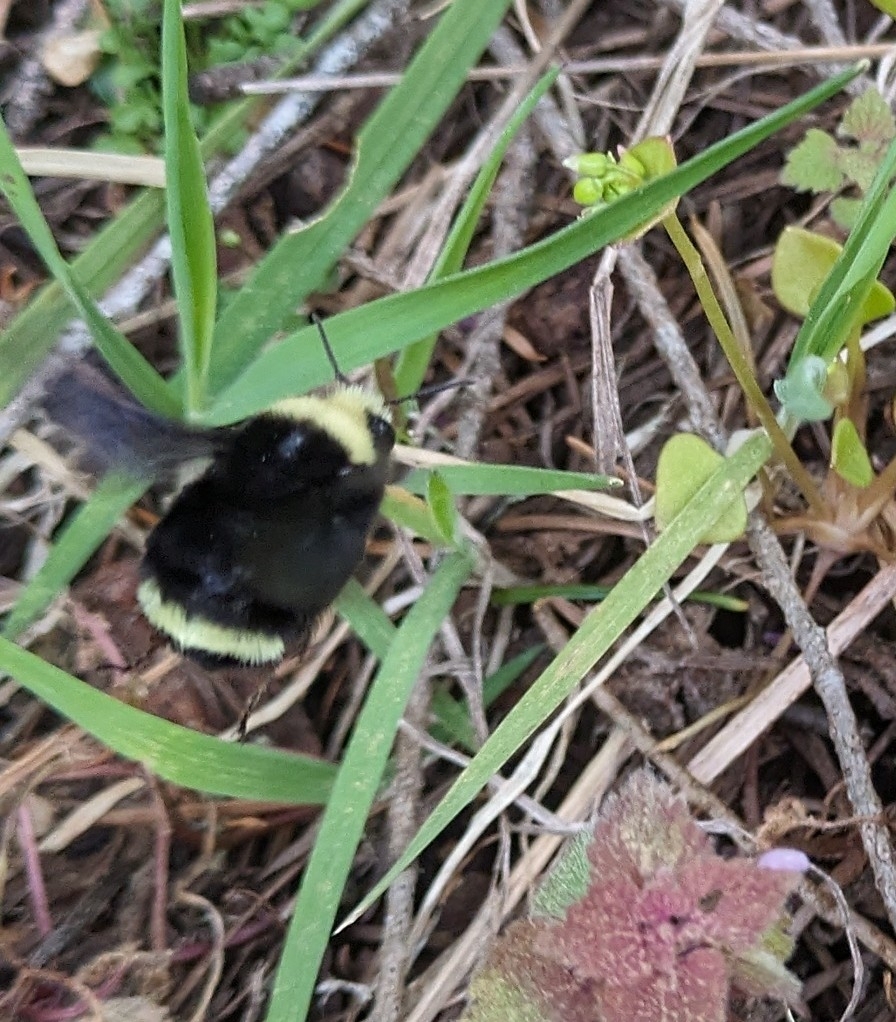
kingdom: Animalia
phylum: Arthropoda
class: Insecta
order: Hymenoptera
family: Apidae
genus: Bombus
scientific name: Bombus vosnesenskii
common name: Vosnesensky bumble bee
